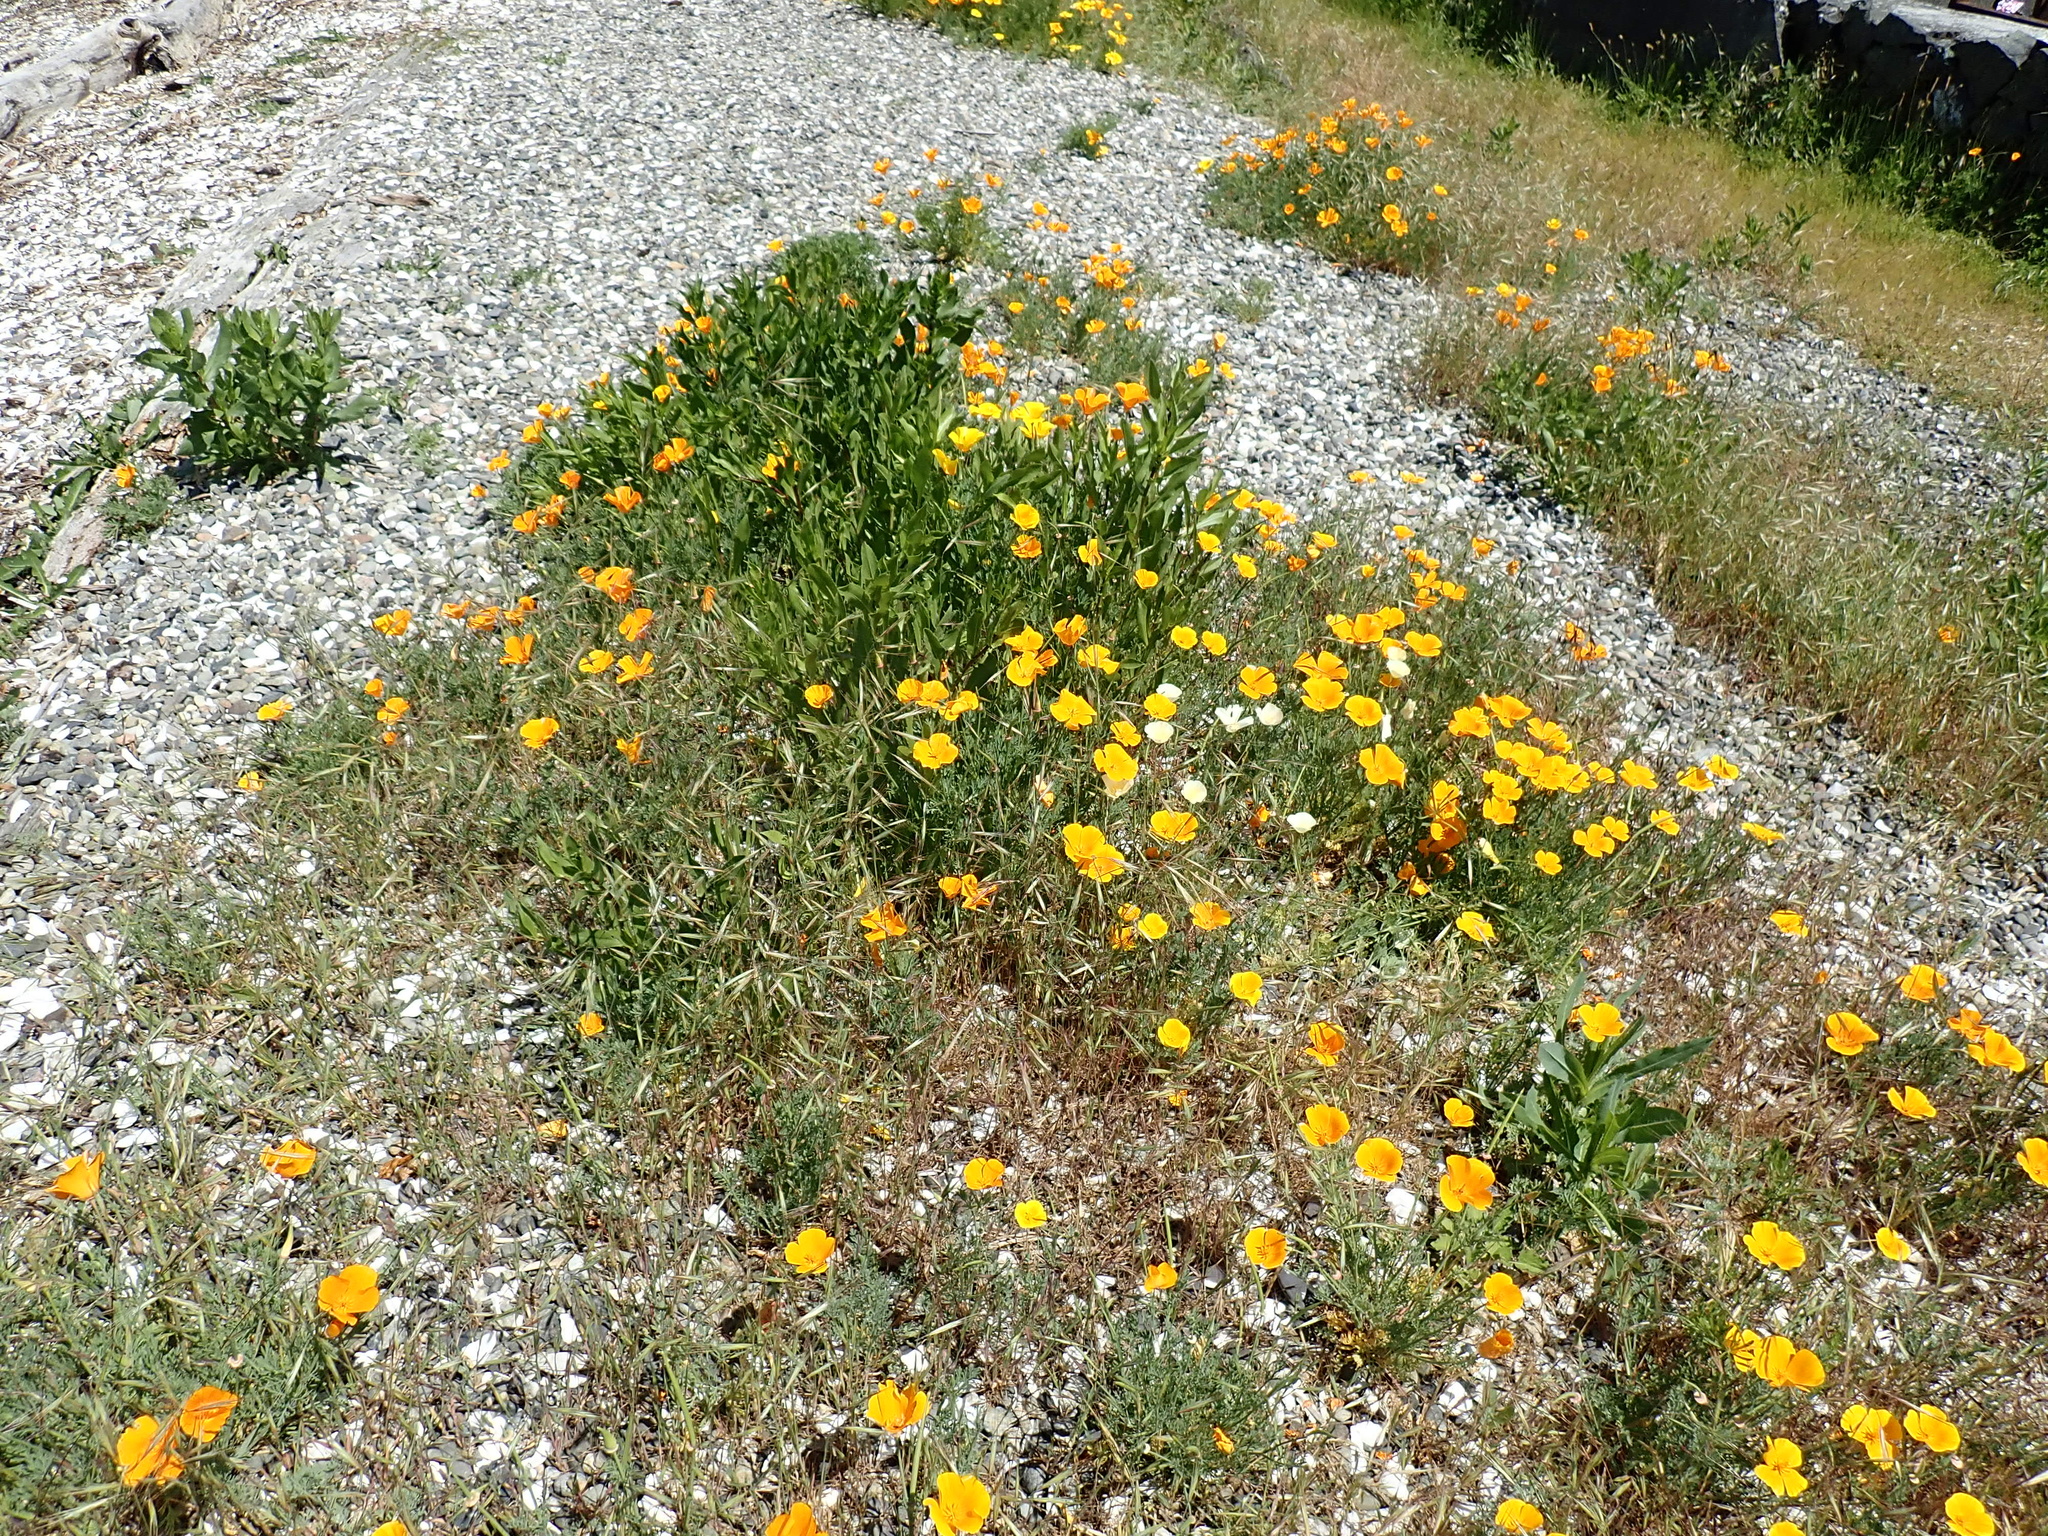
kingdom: Plantae
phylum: Tracheophyta
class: Magnoliopsida
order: Ranunculales
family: Papaveraceae
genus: Eschscholzia
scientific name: Eschscholzia californica
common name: California poppy
